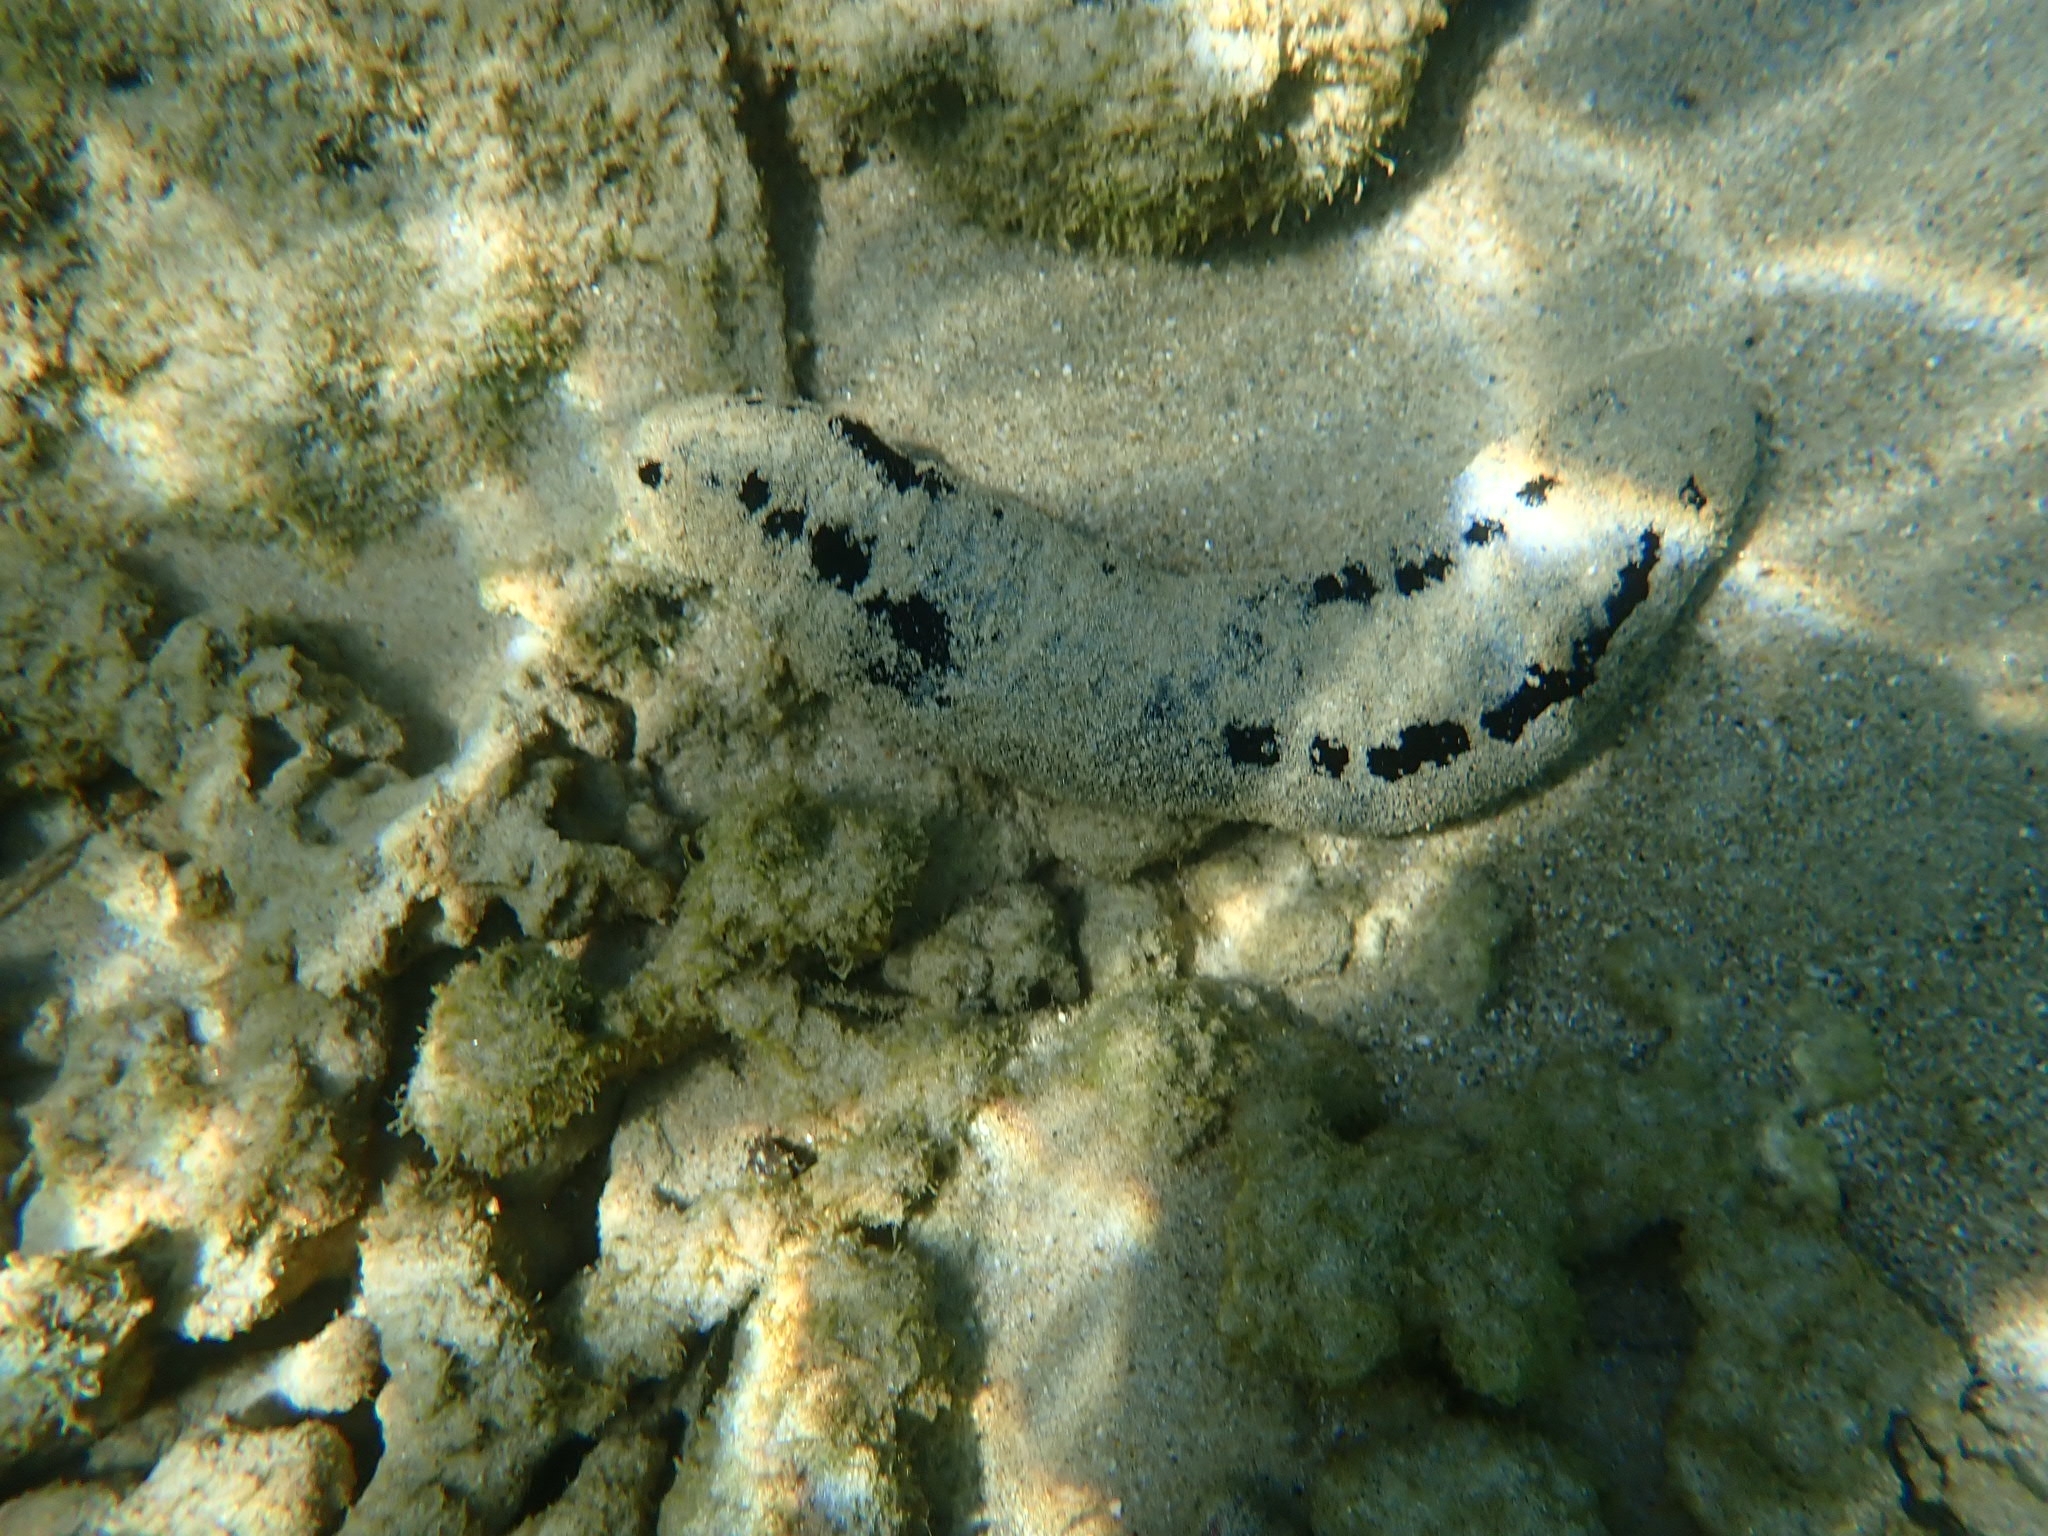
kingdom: Animalia
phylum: Echinodermata
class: Holothuroidea
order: Holothuriida
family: Holothuriidae
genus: Holothuria
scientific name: Holothuria atra
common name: Lollyfish
